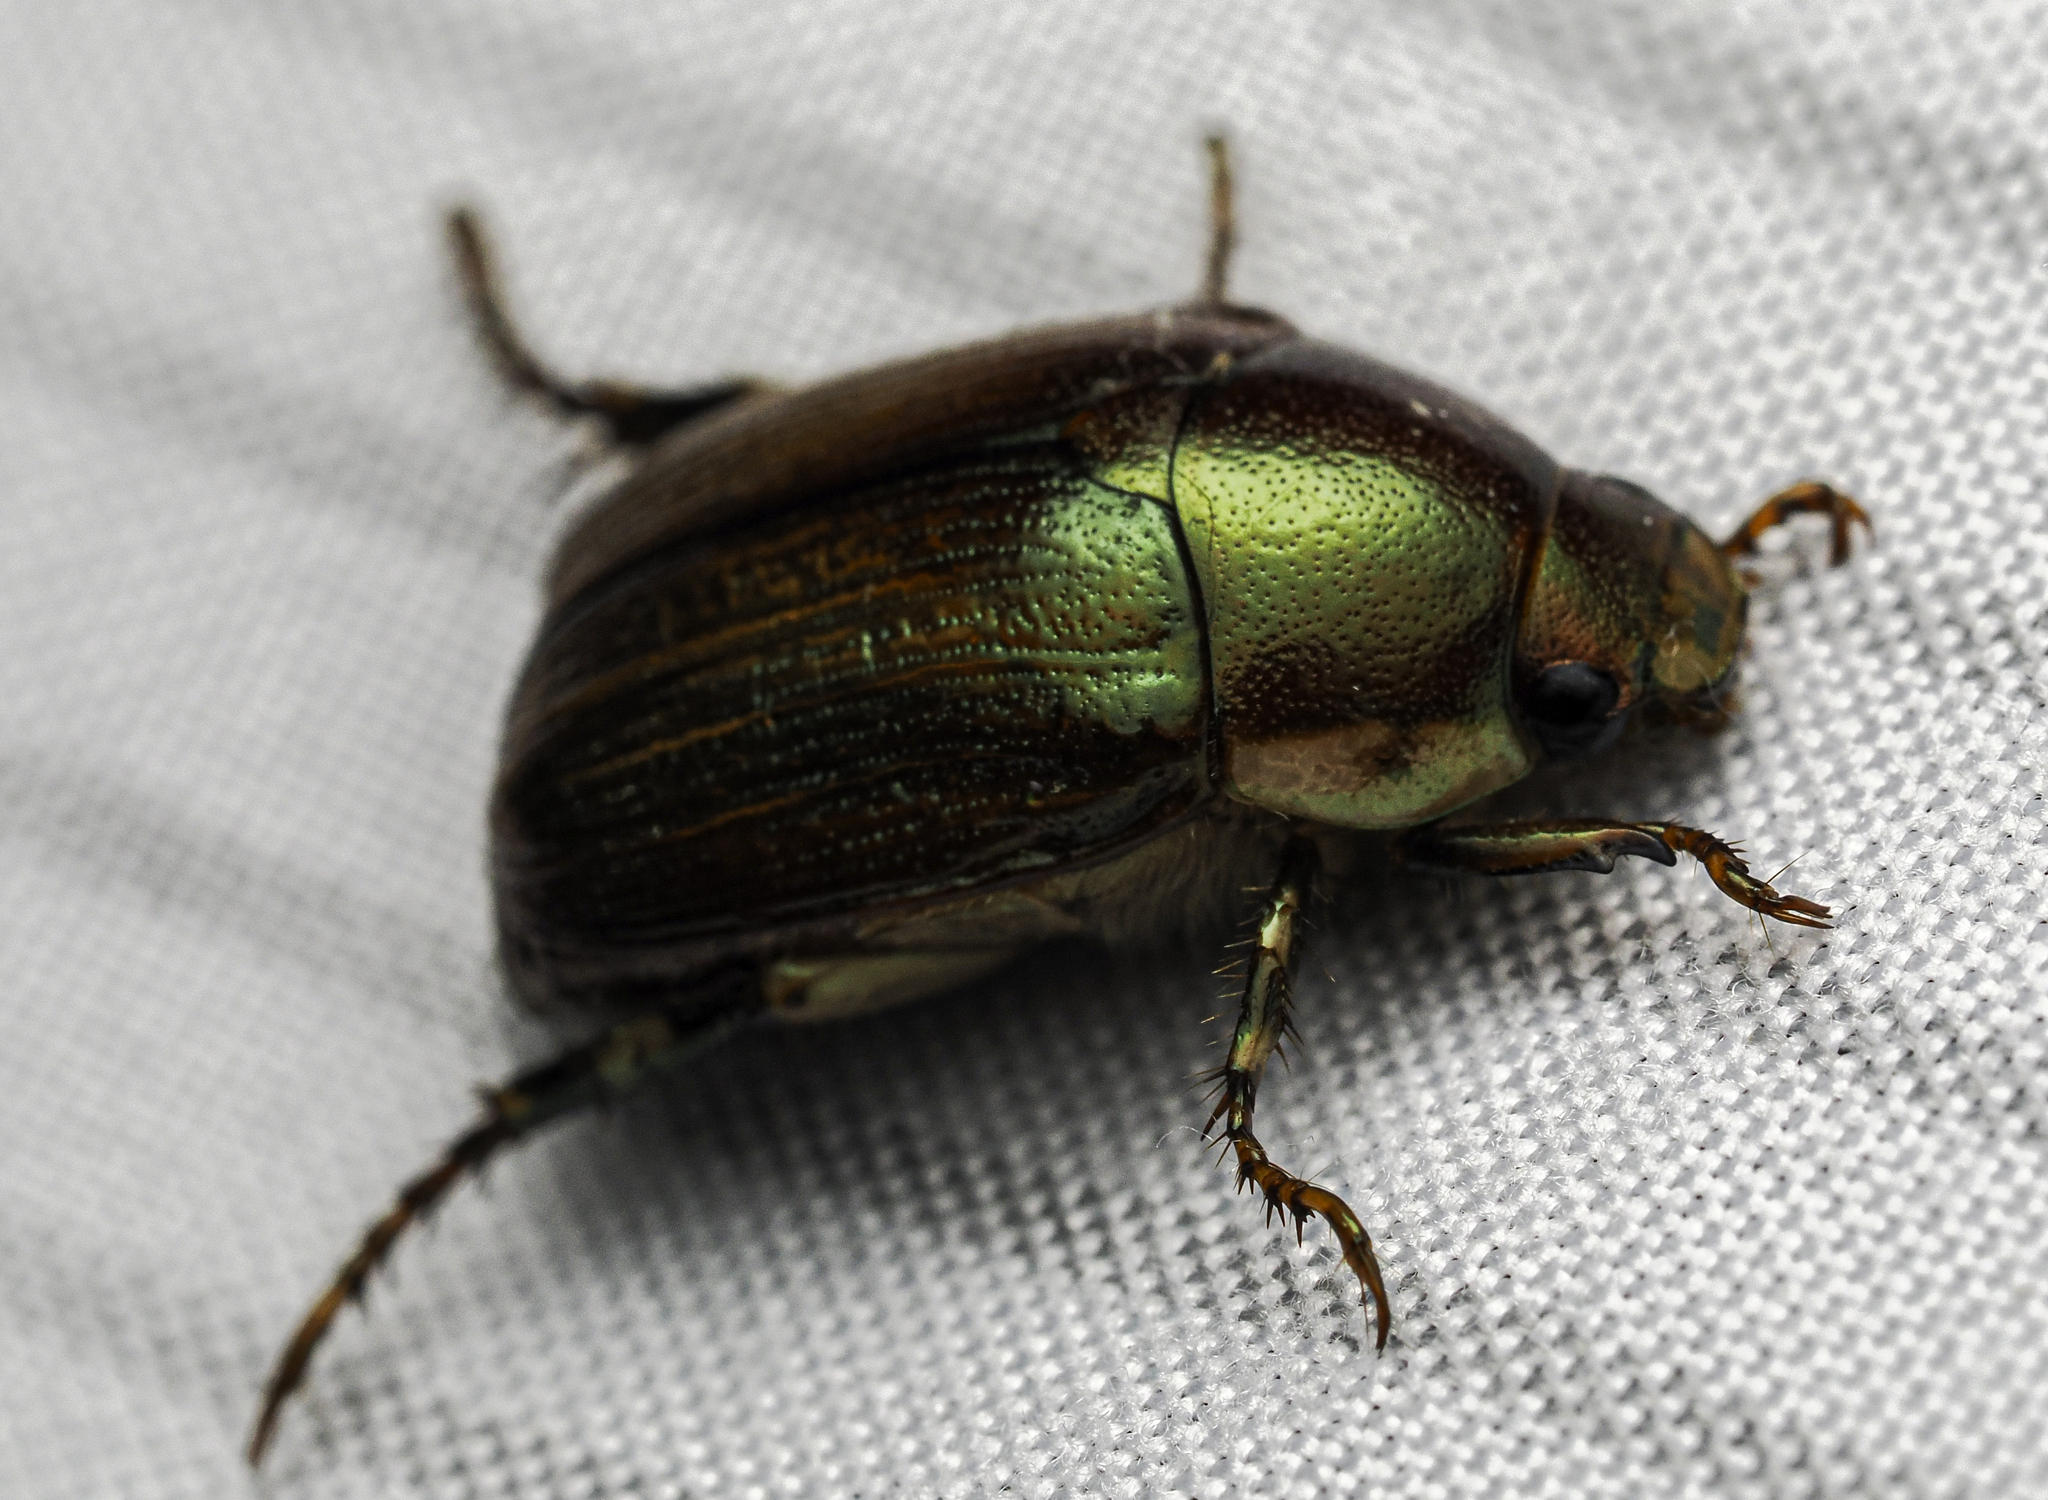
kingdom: Animalia
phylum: Arthropoda
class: Insecta
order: Coleoptera
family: Scarabaeidae
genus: Callistethus
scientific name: Callistethus marginatus
